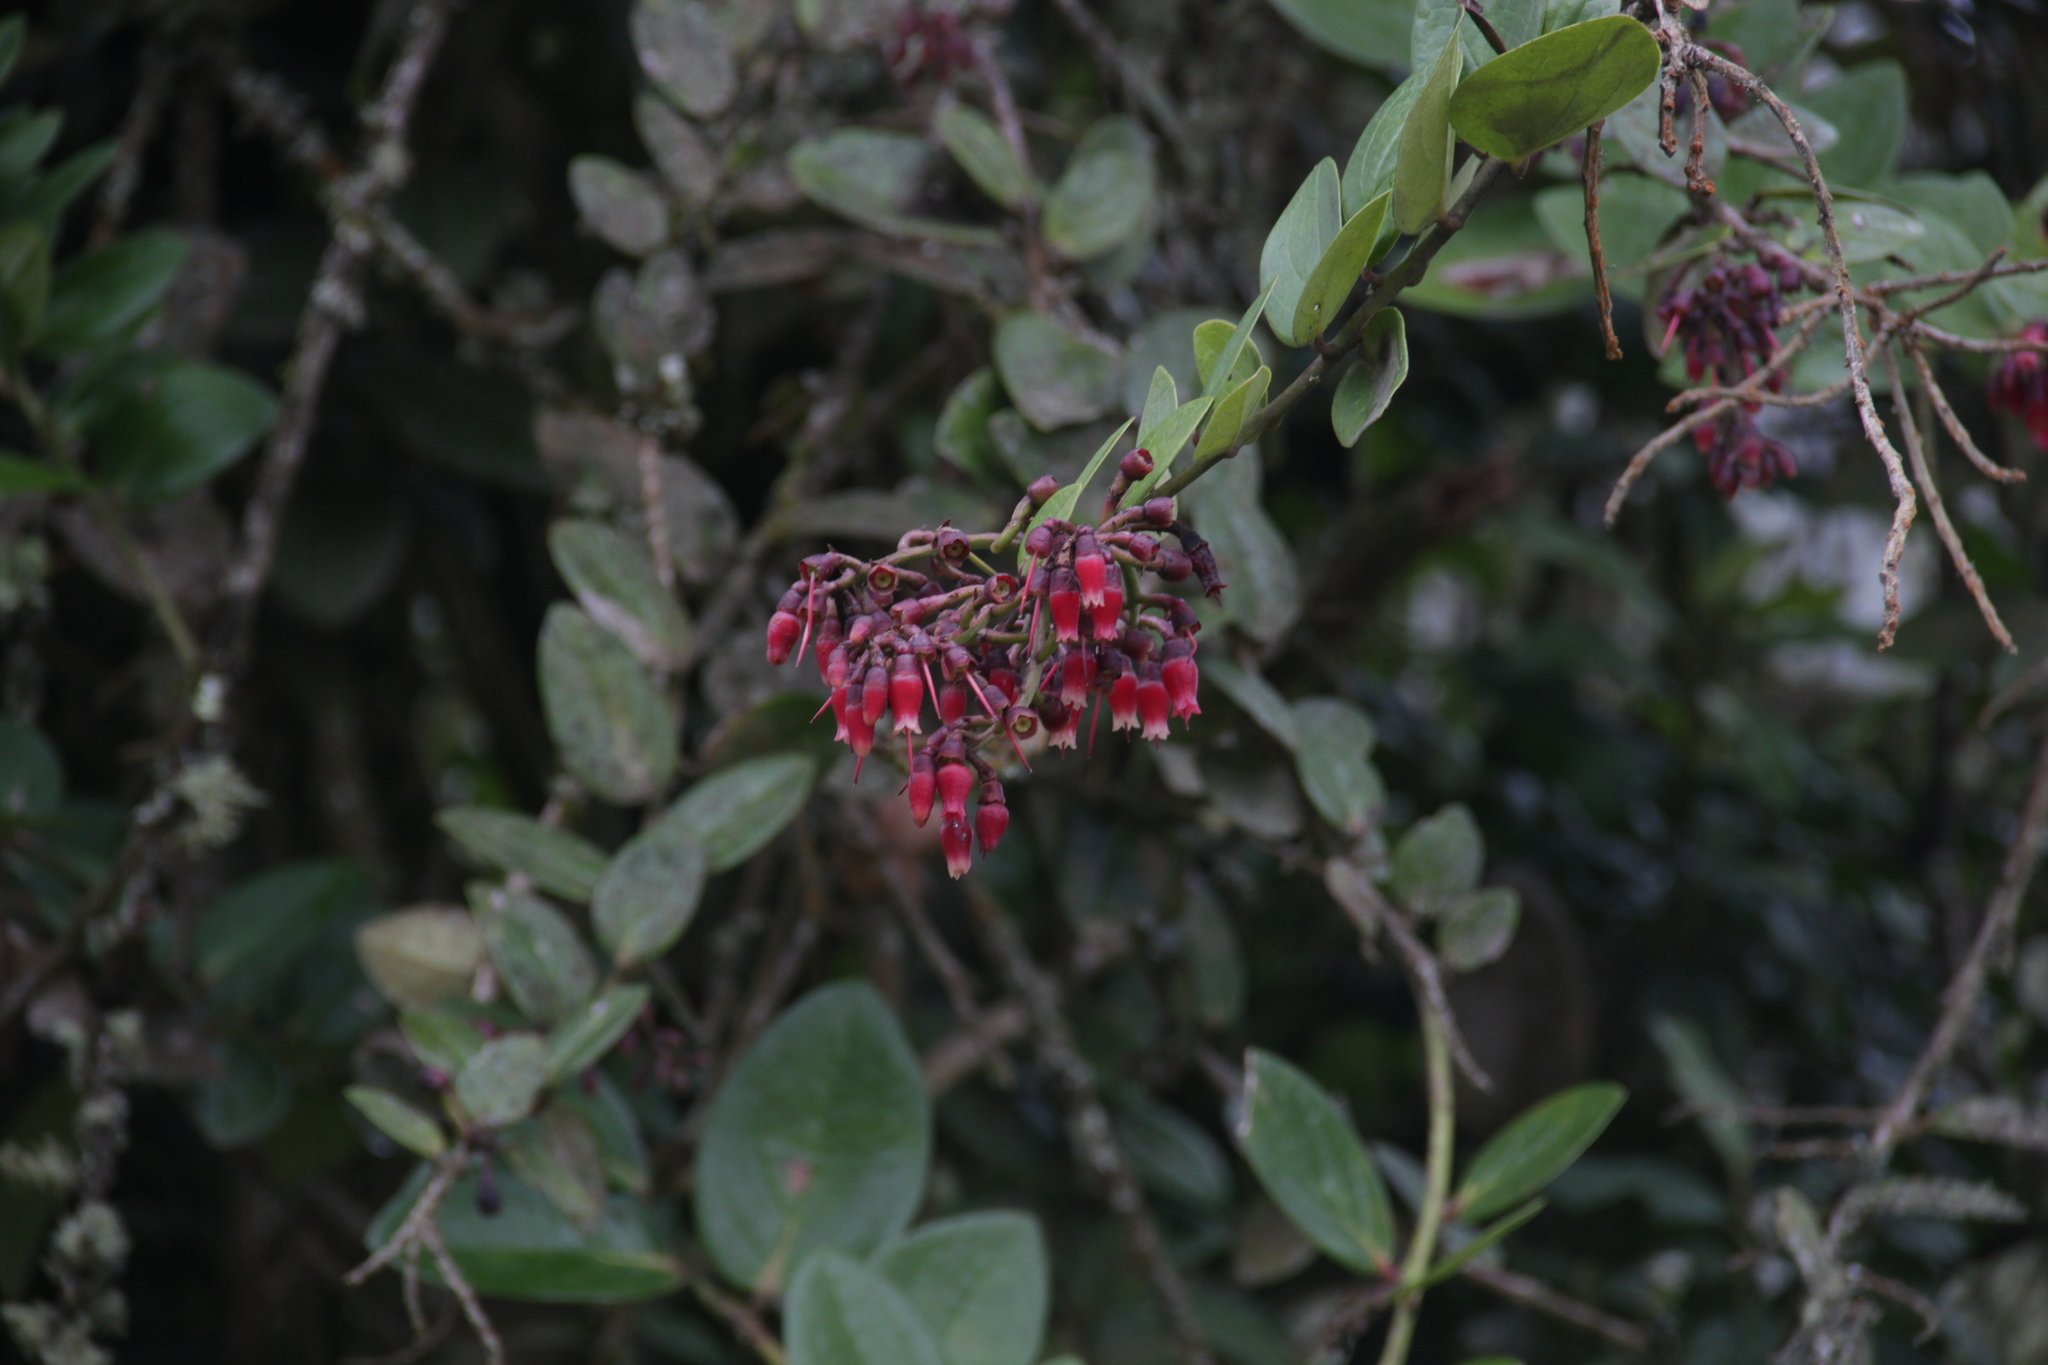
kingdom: Plantae
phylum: Tracheophyta
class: Magnoliopsida
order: Ericales
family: Ericaceae
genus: Macleania
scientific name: Macleania rupestris
